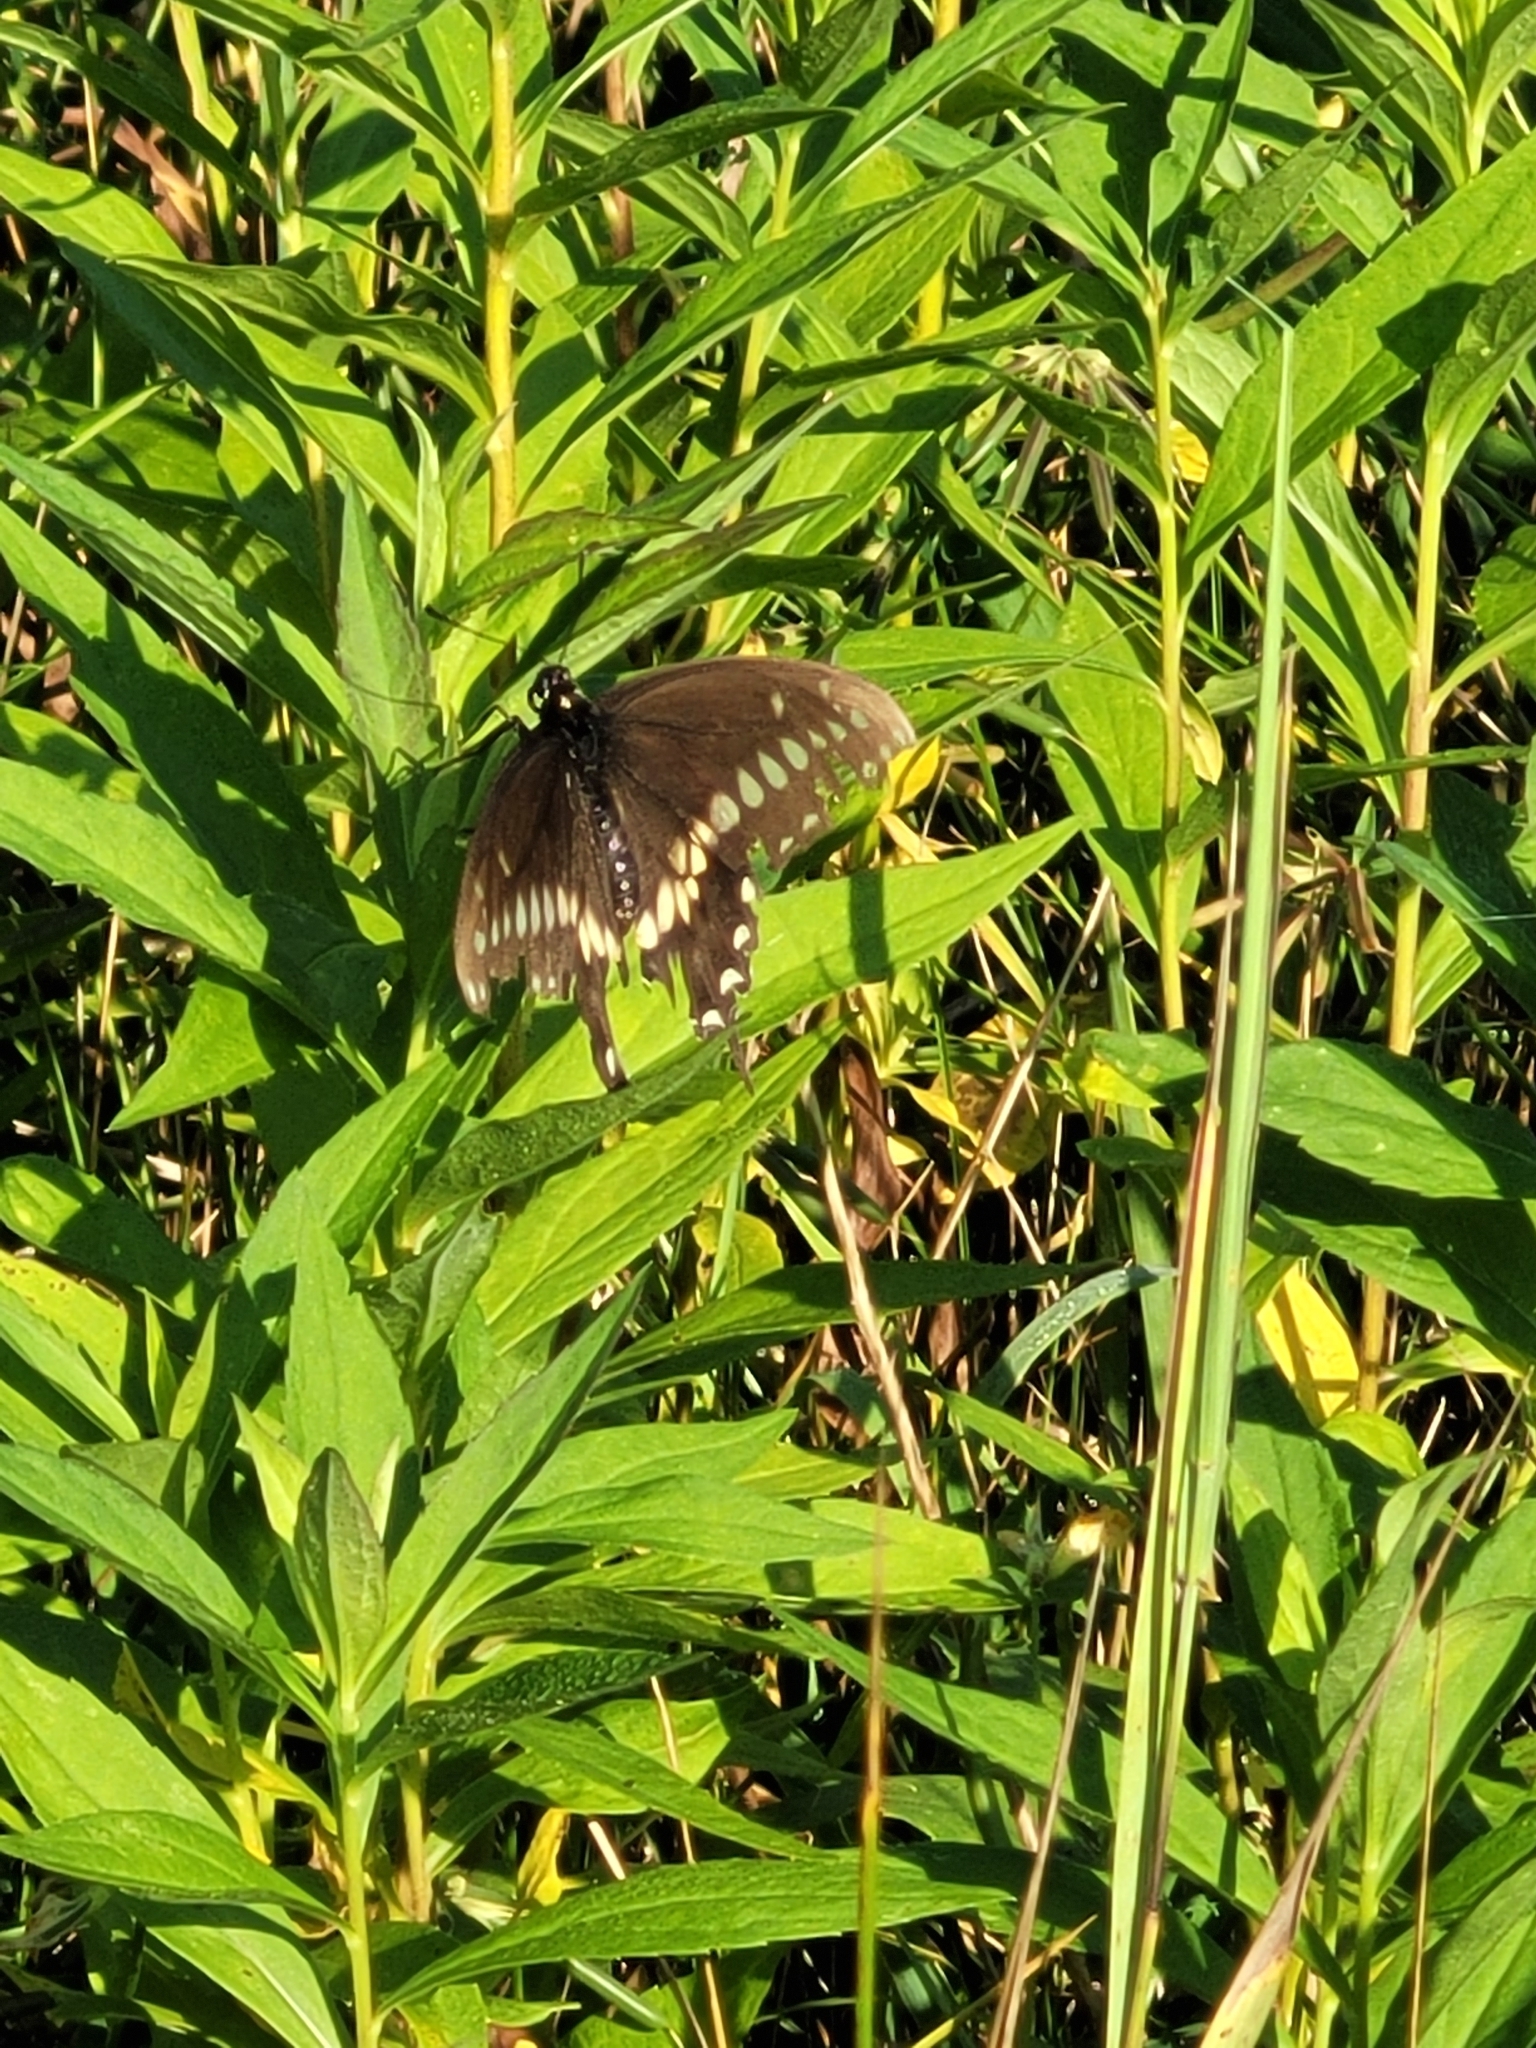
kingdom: Animalia
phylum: Arthropoda
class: Insecta
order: Lepidoptera
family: Papilionidae
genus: Papilio
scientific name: Papilio polyxenes
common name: Black swallowtail
